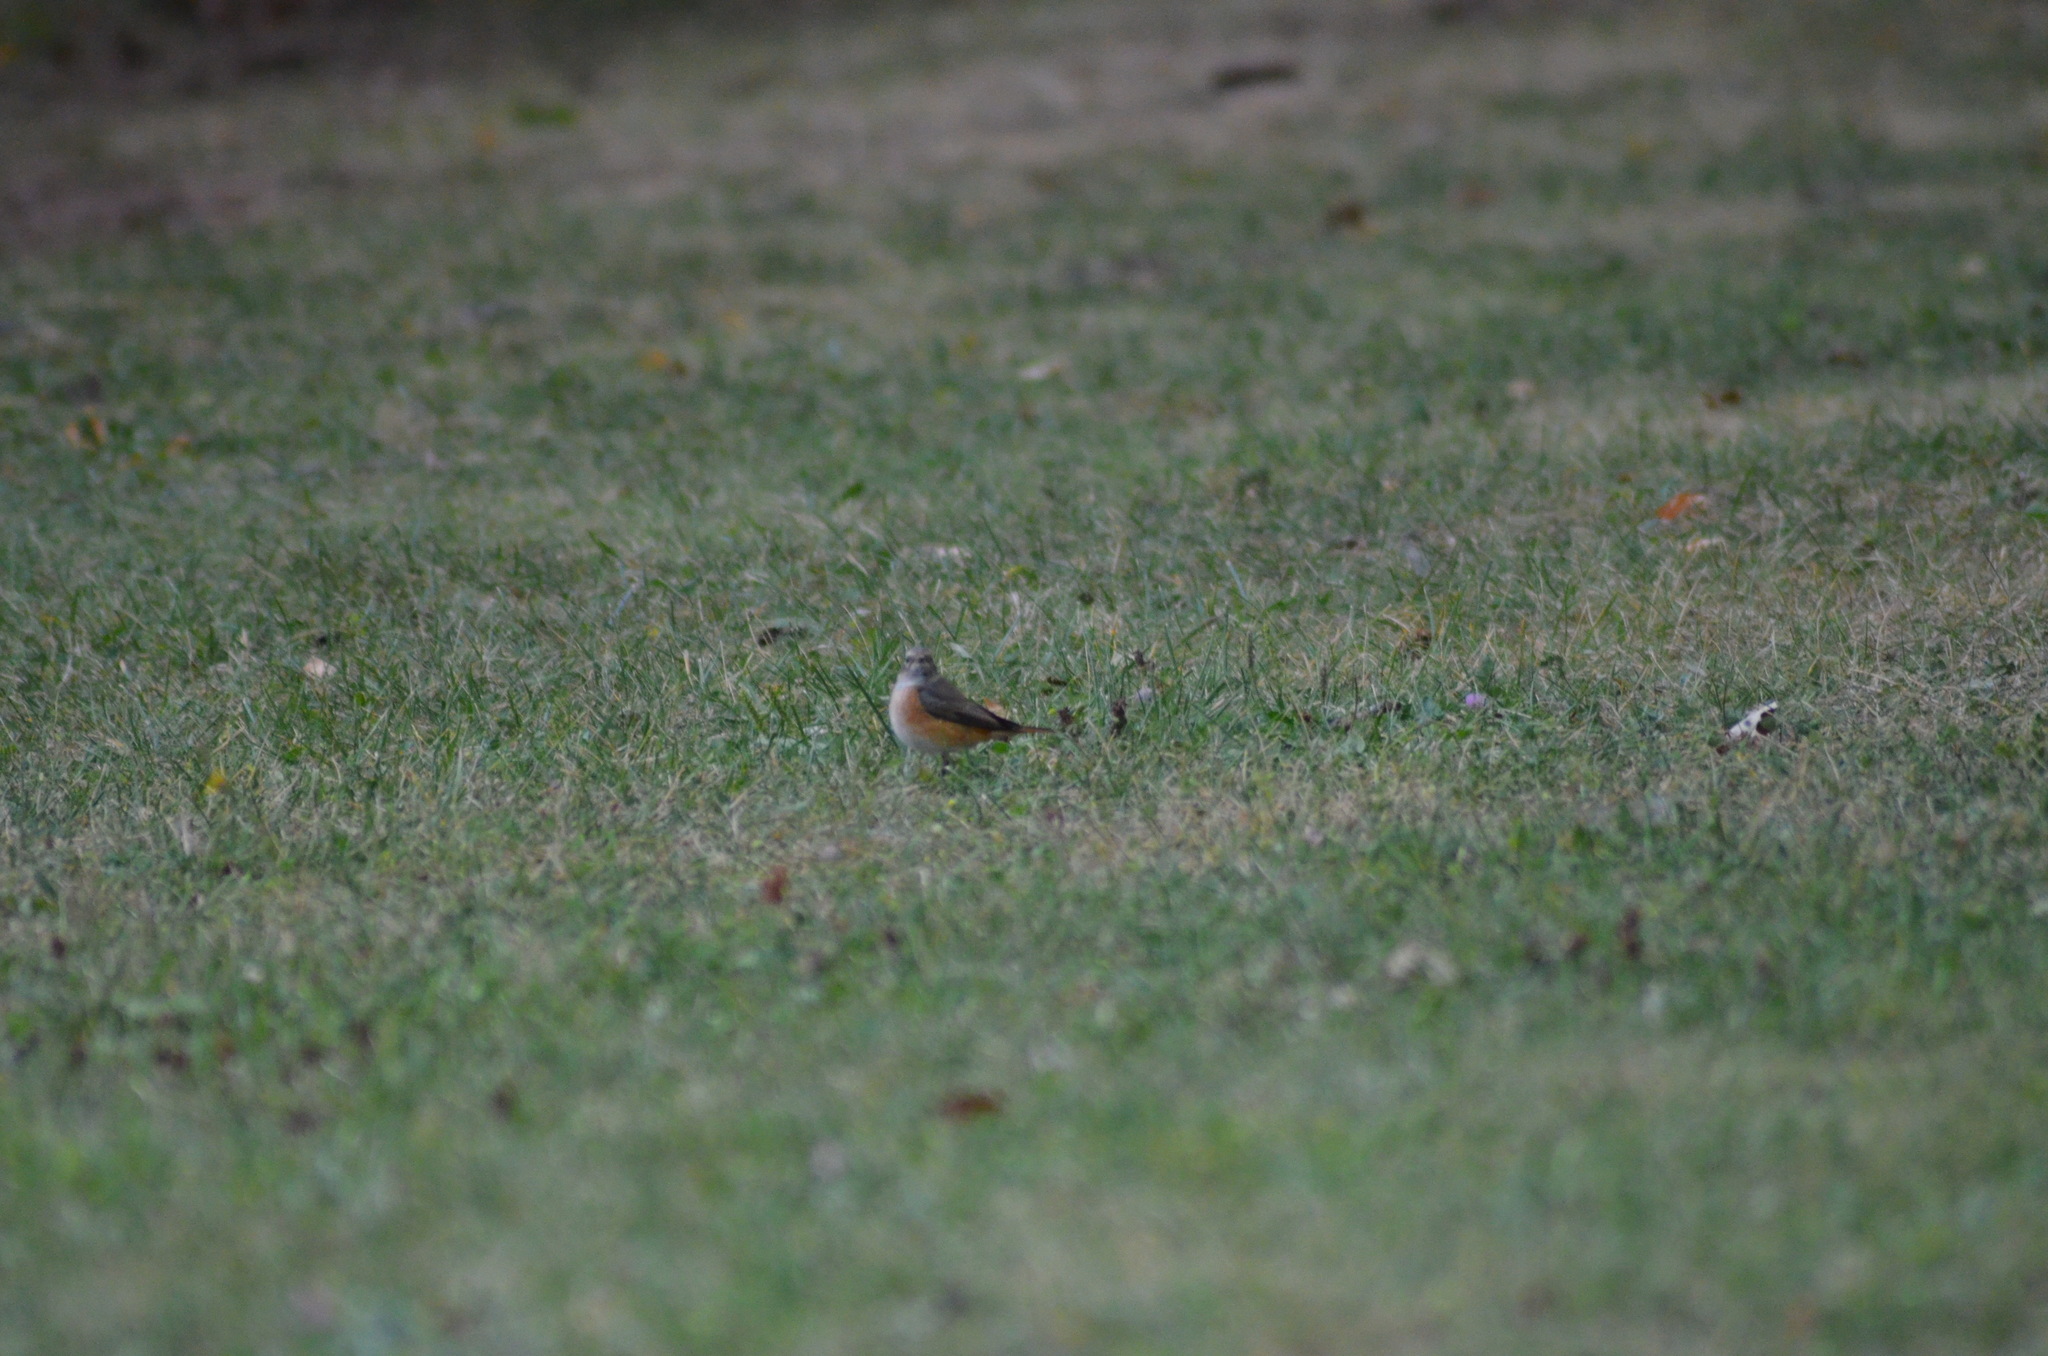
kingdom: Animalia
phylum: Chordata
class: Aves
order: Passeriformes
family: Muscicapidae
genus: Phoenicurus
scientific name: Phoenicurus phoenicurus
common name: Common redstart
